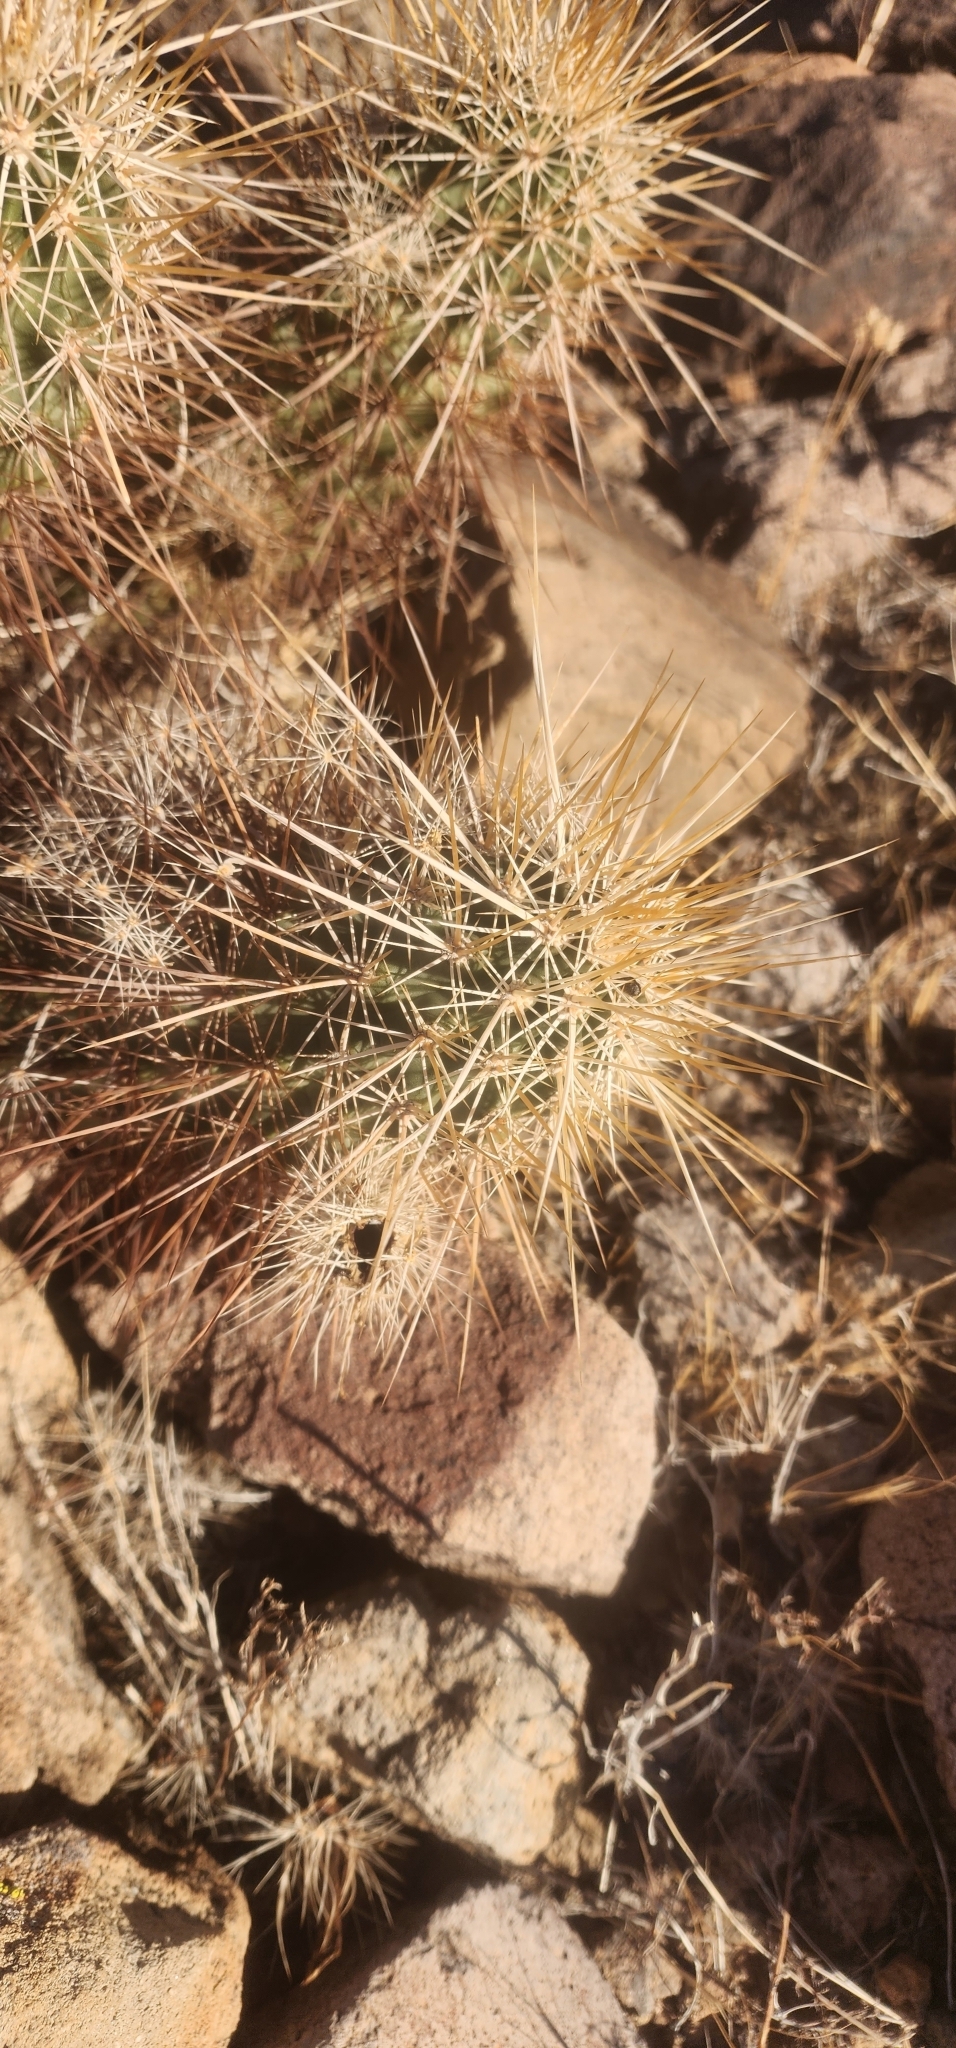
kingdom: Plantae
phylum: Tracheophyta
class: Magnoliopsida
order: Caryophyllales
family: Cactaceae
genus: Echinocereus
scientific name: Echinocereus engelmannii
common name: Engelmann's hedgehog cactus
